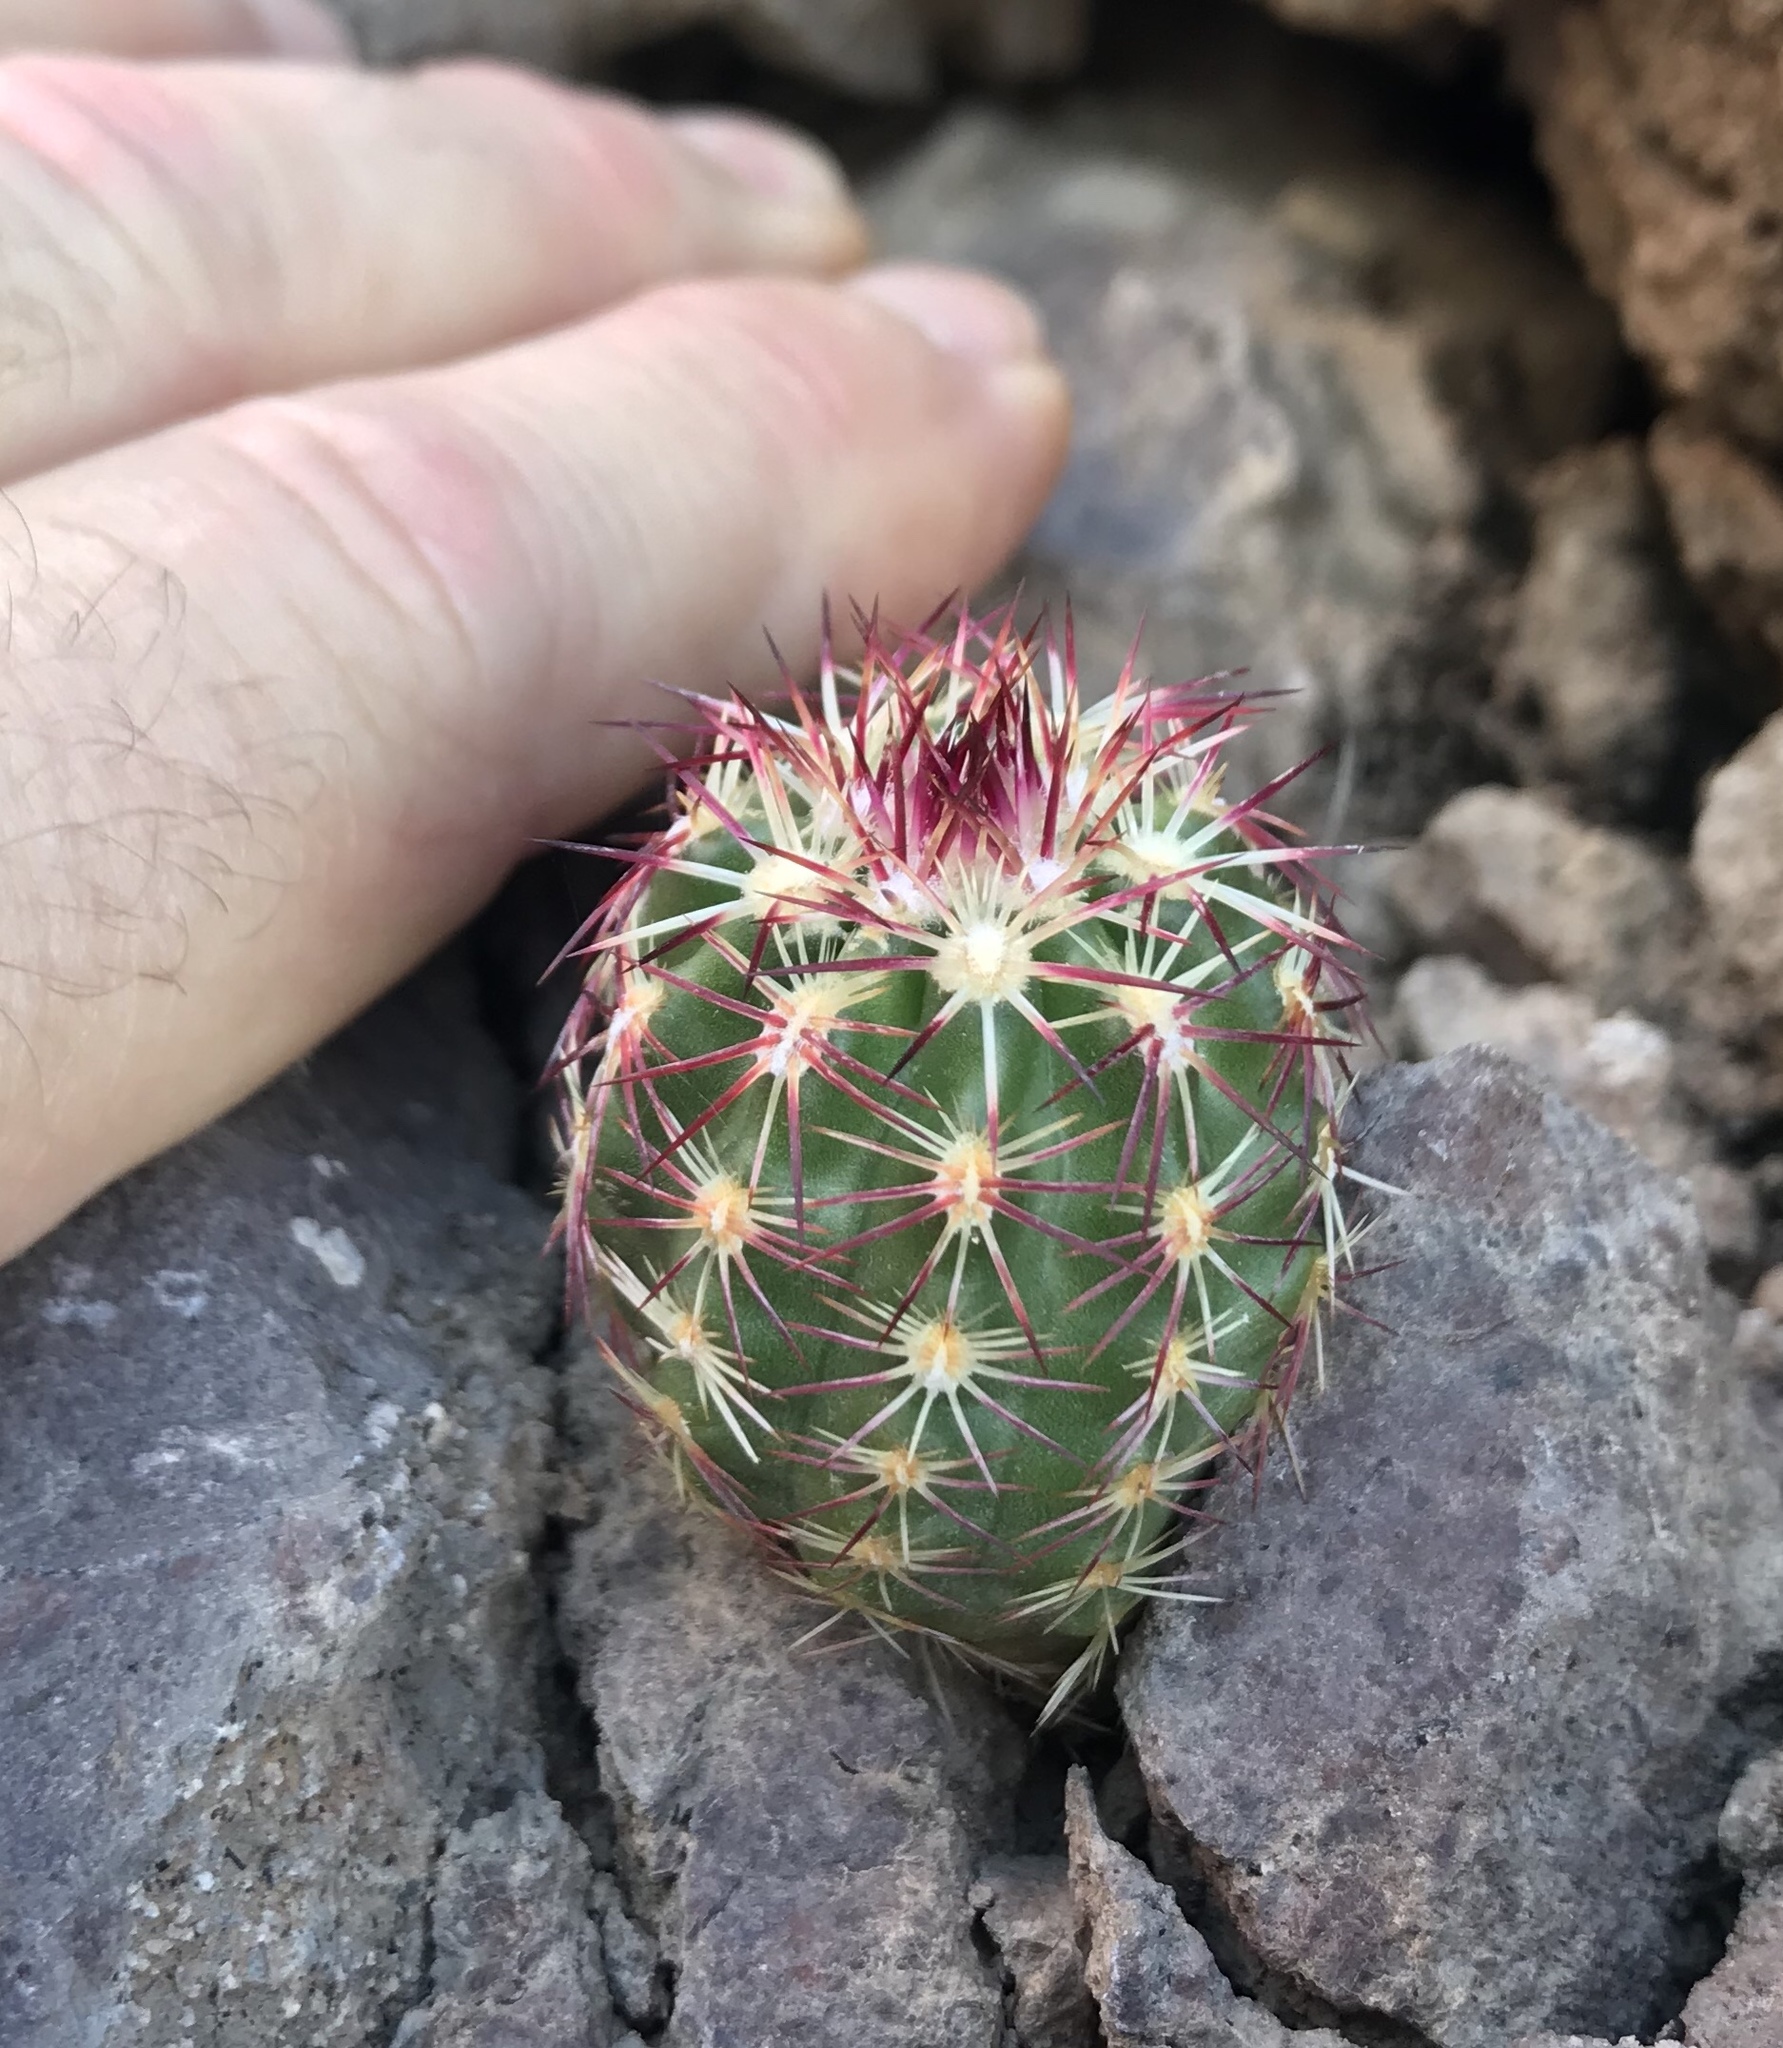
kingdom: Plantae
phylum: Tracheophyta
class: Magnoliopsida
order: Caryophyllales
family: Cactaceae
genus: Echinocereus
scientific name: Echinocereus viridiflorus
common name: Nylon hedgehog cactus
